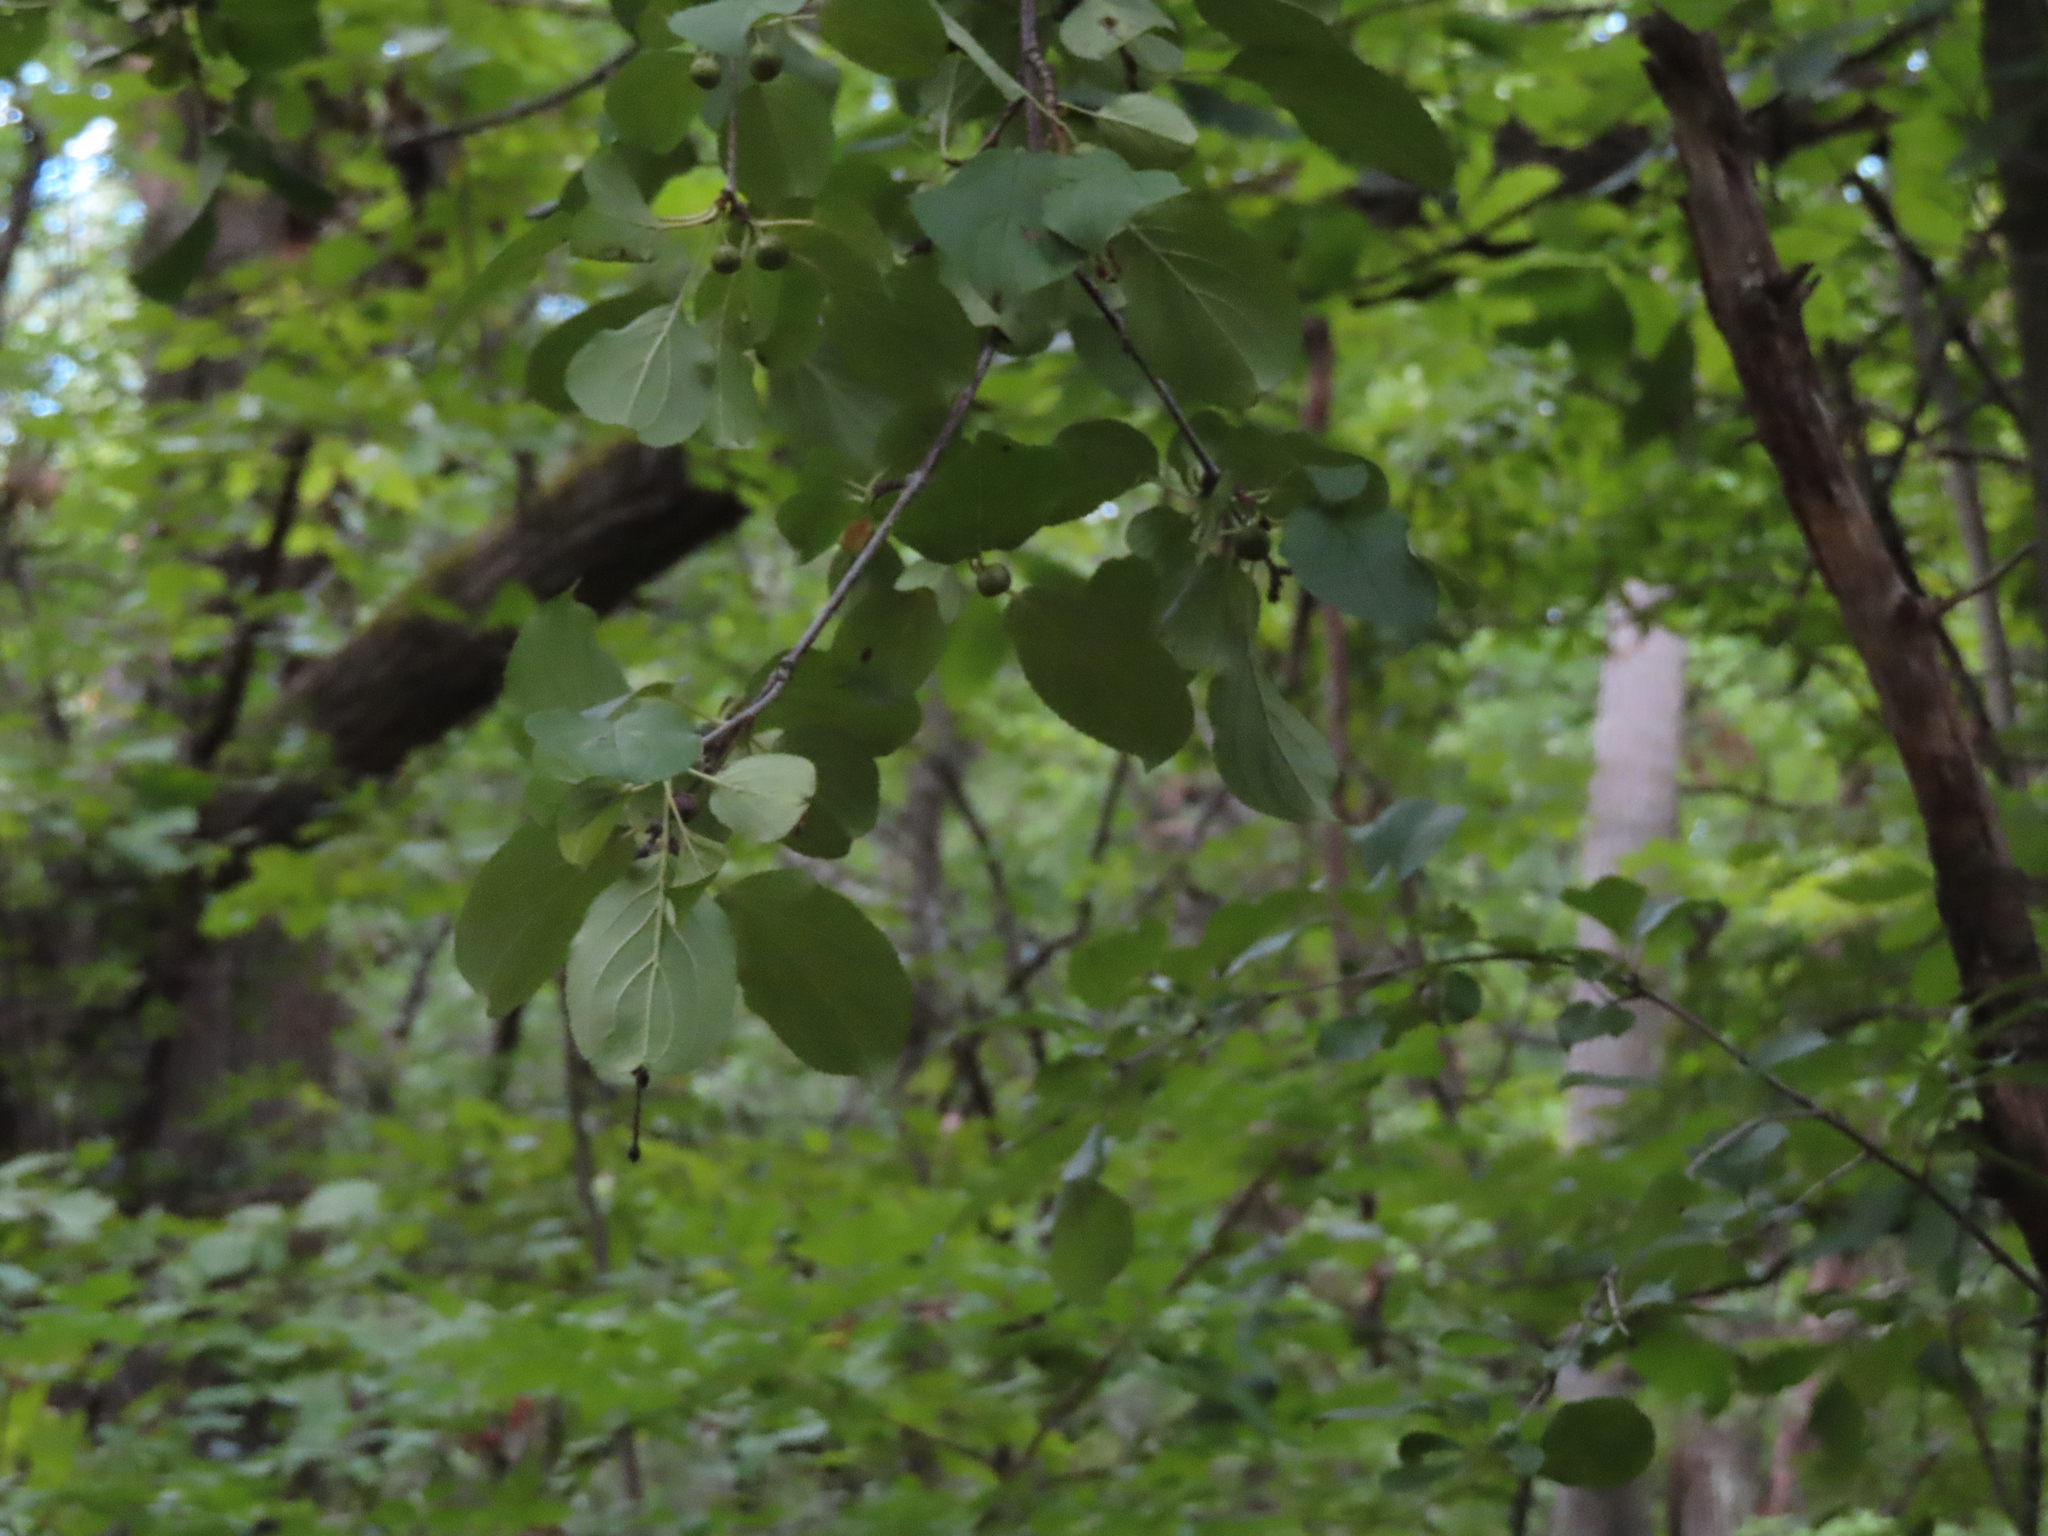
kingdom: Plantae
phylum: Tracheophyta
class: Magnoliopsida
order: Rosales
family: Rhamnaceae
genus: Rhamnus
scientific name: Rhamnus cathartica
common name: Common buckthorn
